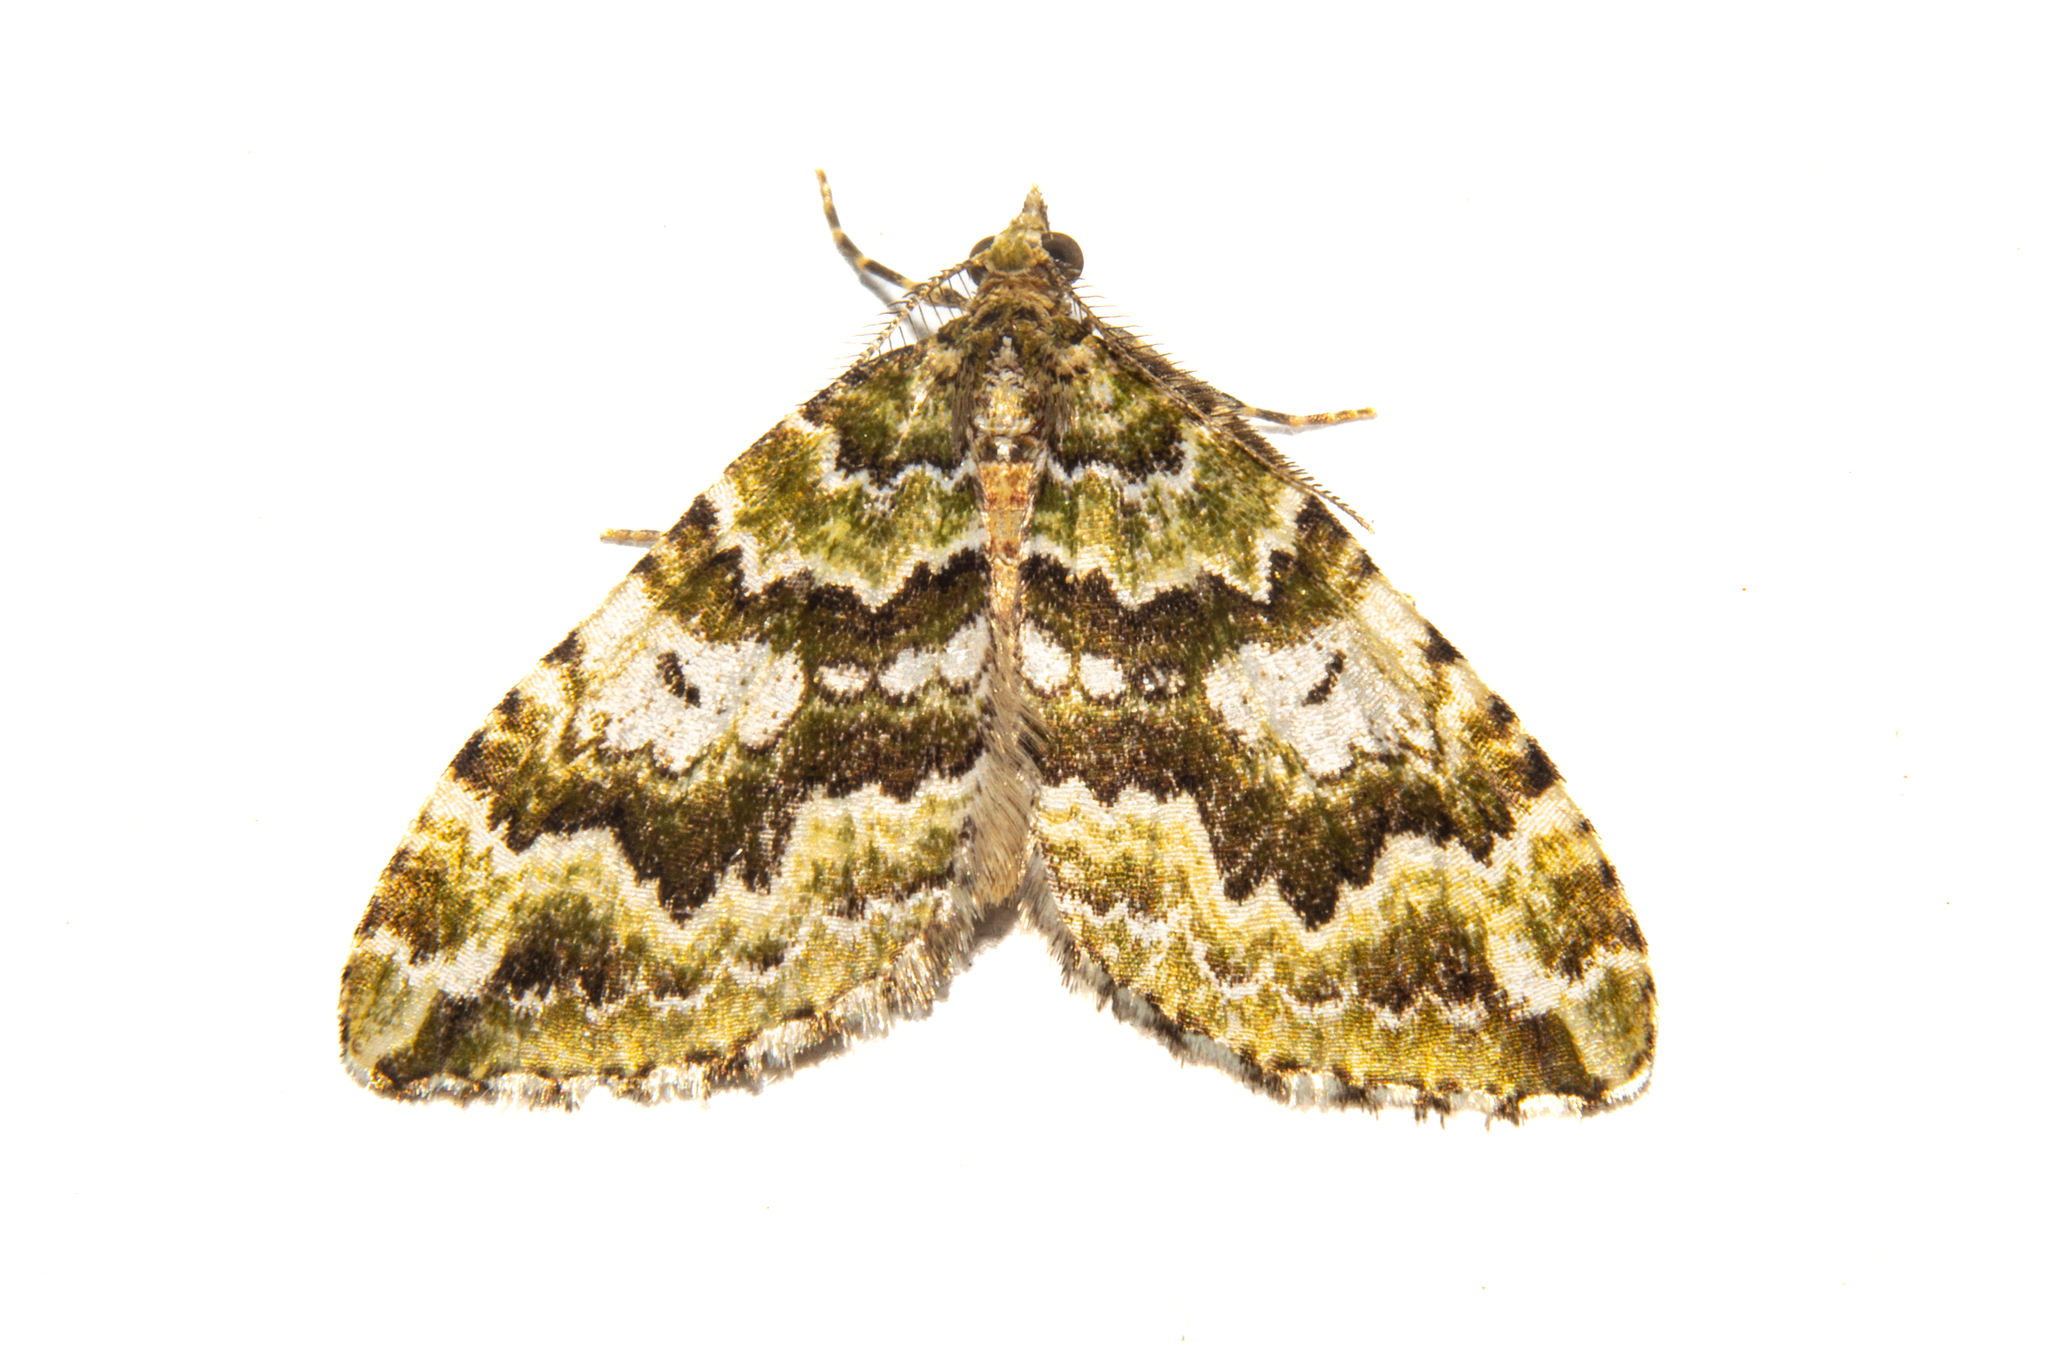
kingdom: Animalia
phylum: Arthropoda
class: Insecta
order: Lepidoptera
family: Geometridae
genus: Asaphodes
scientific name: Asaphodes beata
